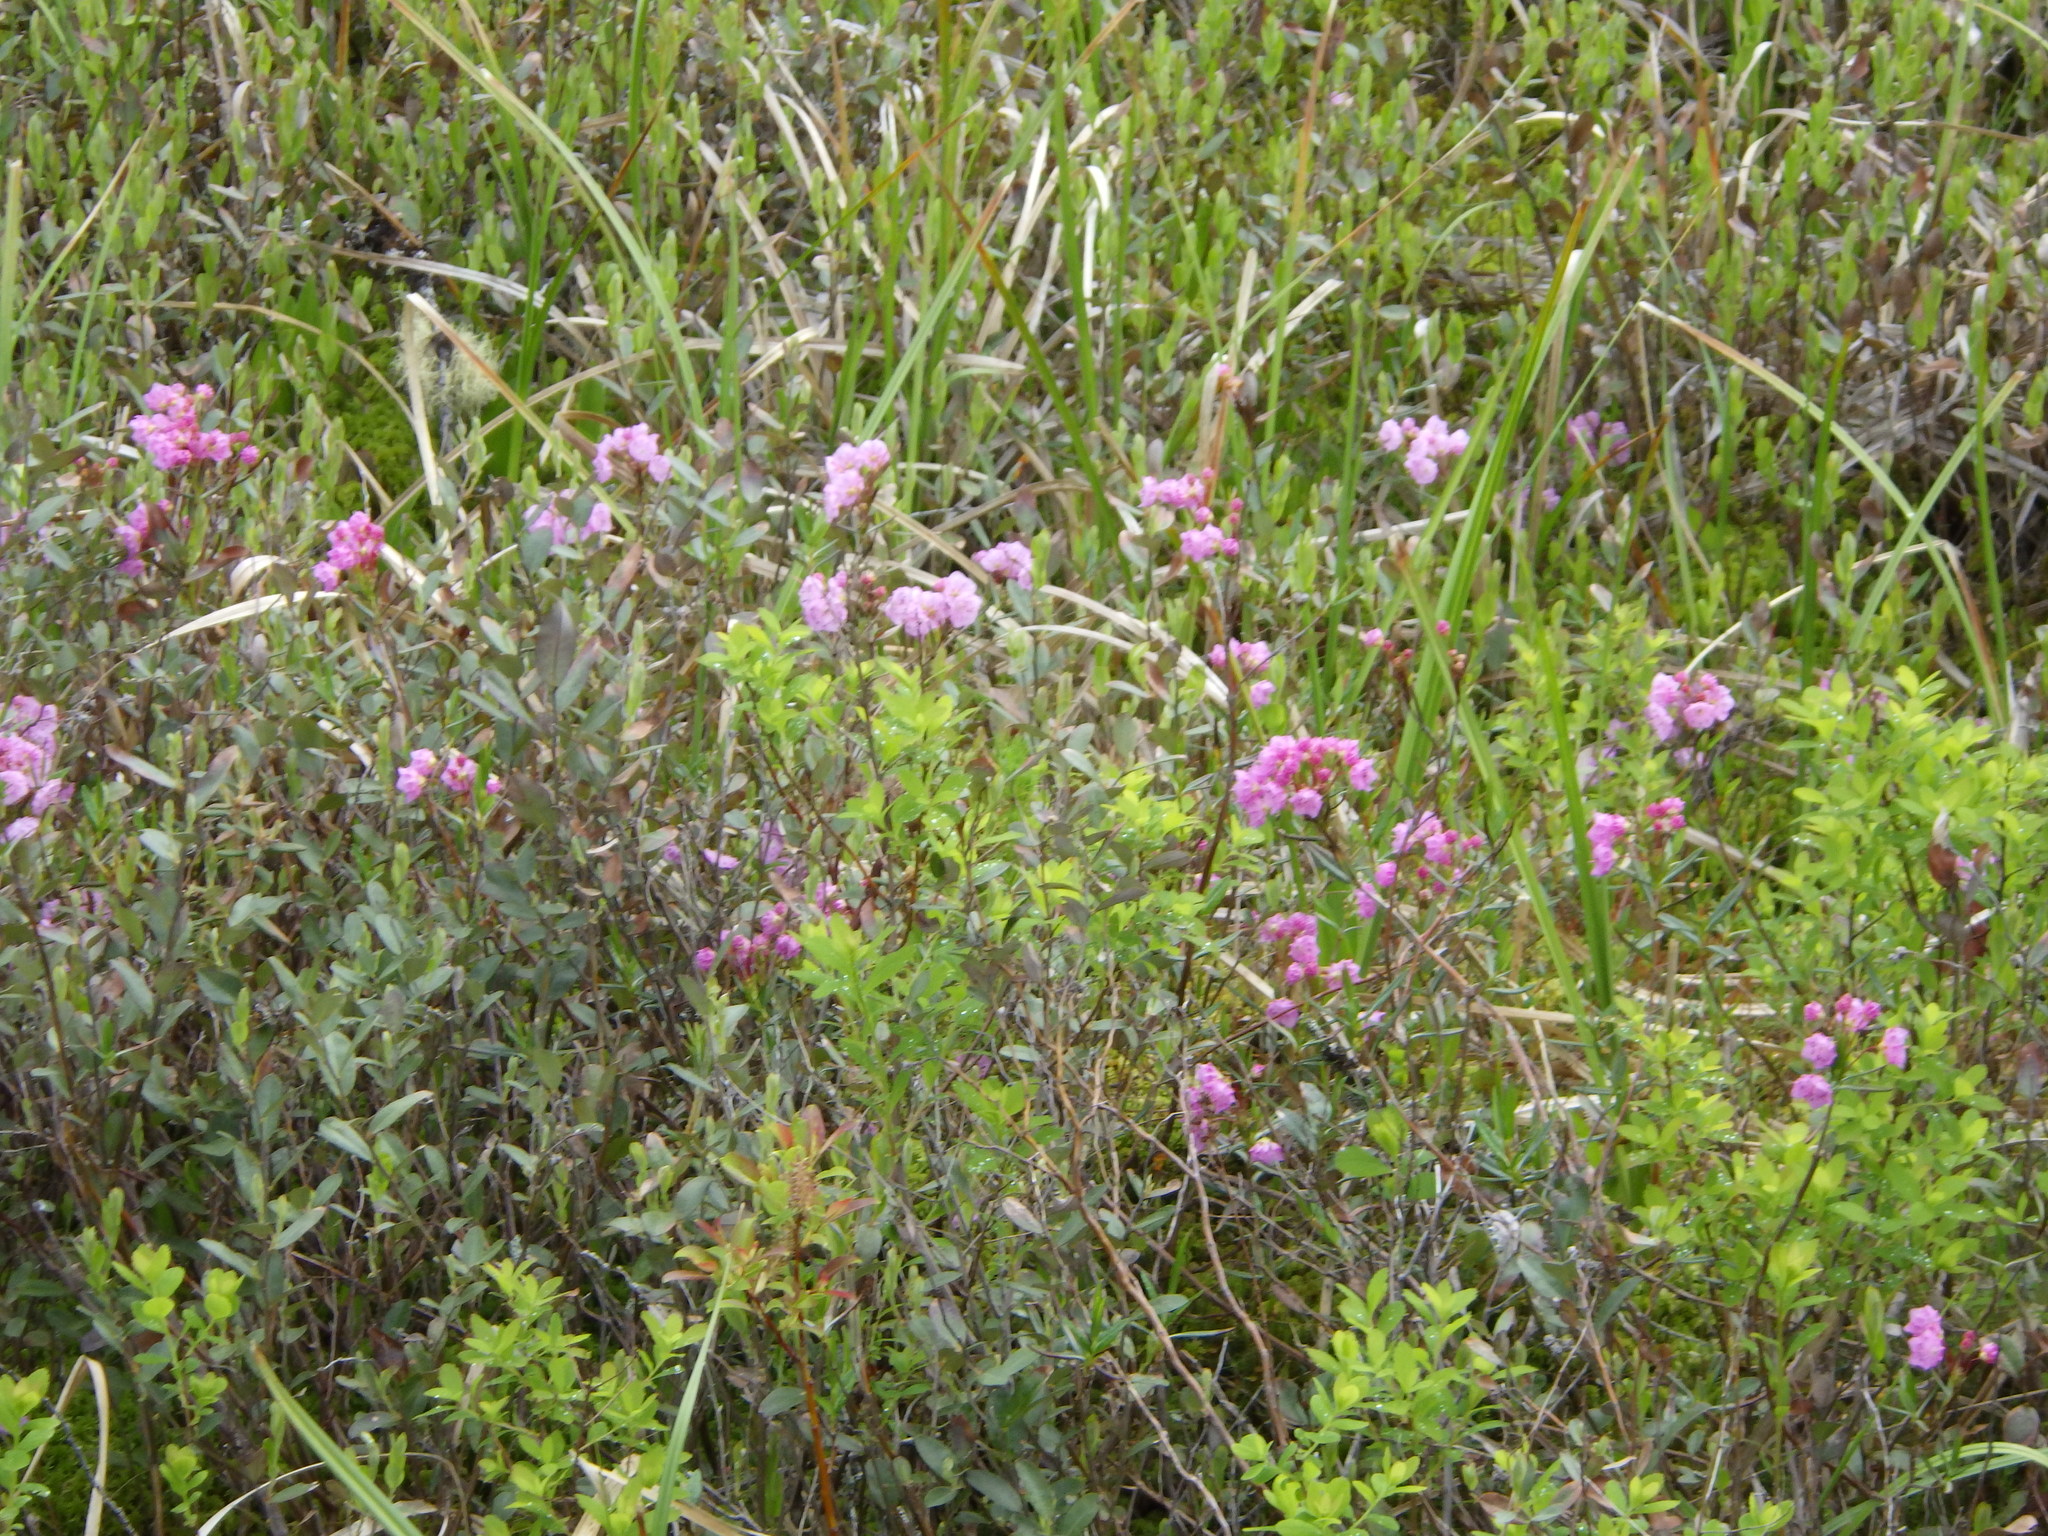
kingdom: Plantae
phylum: Tracheophyta
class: Magnoliopsida
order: Ericales
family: Ericaceae
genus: Kalmia
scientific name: Kalmia polifolia
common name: Bog-laurel
